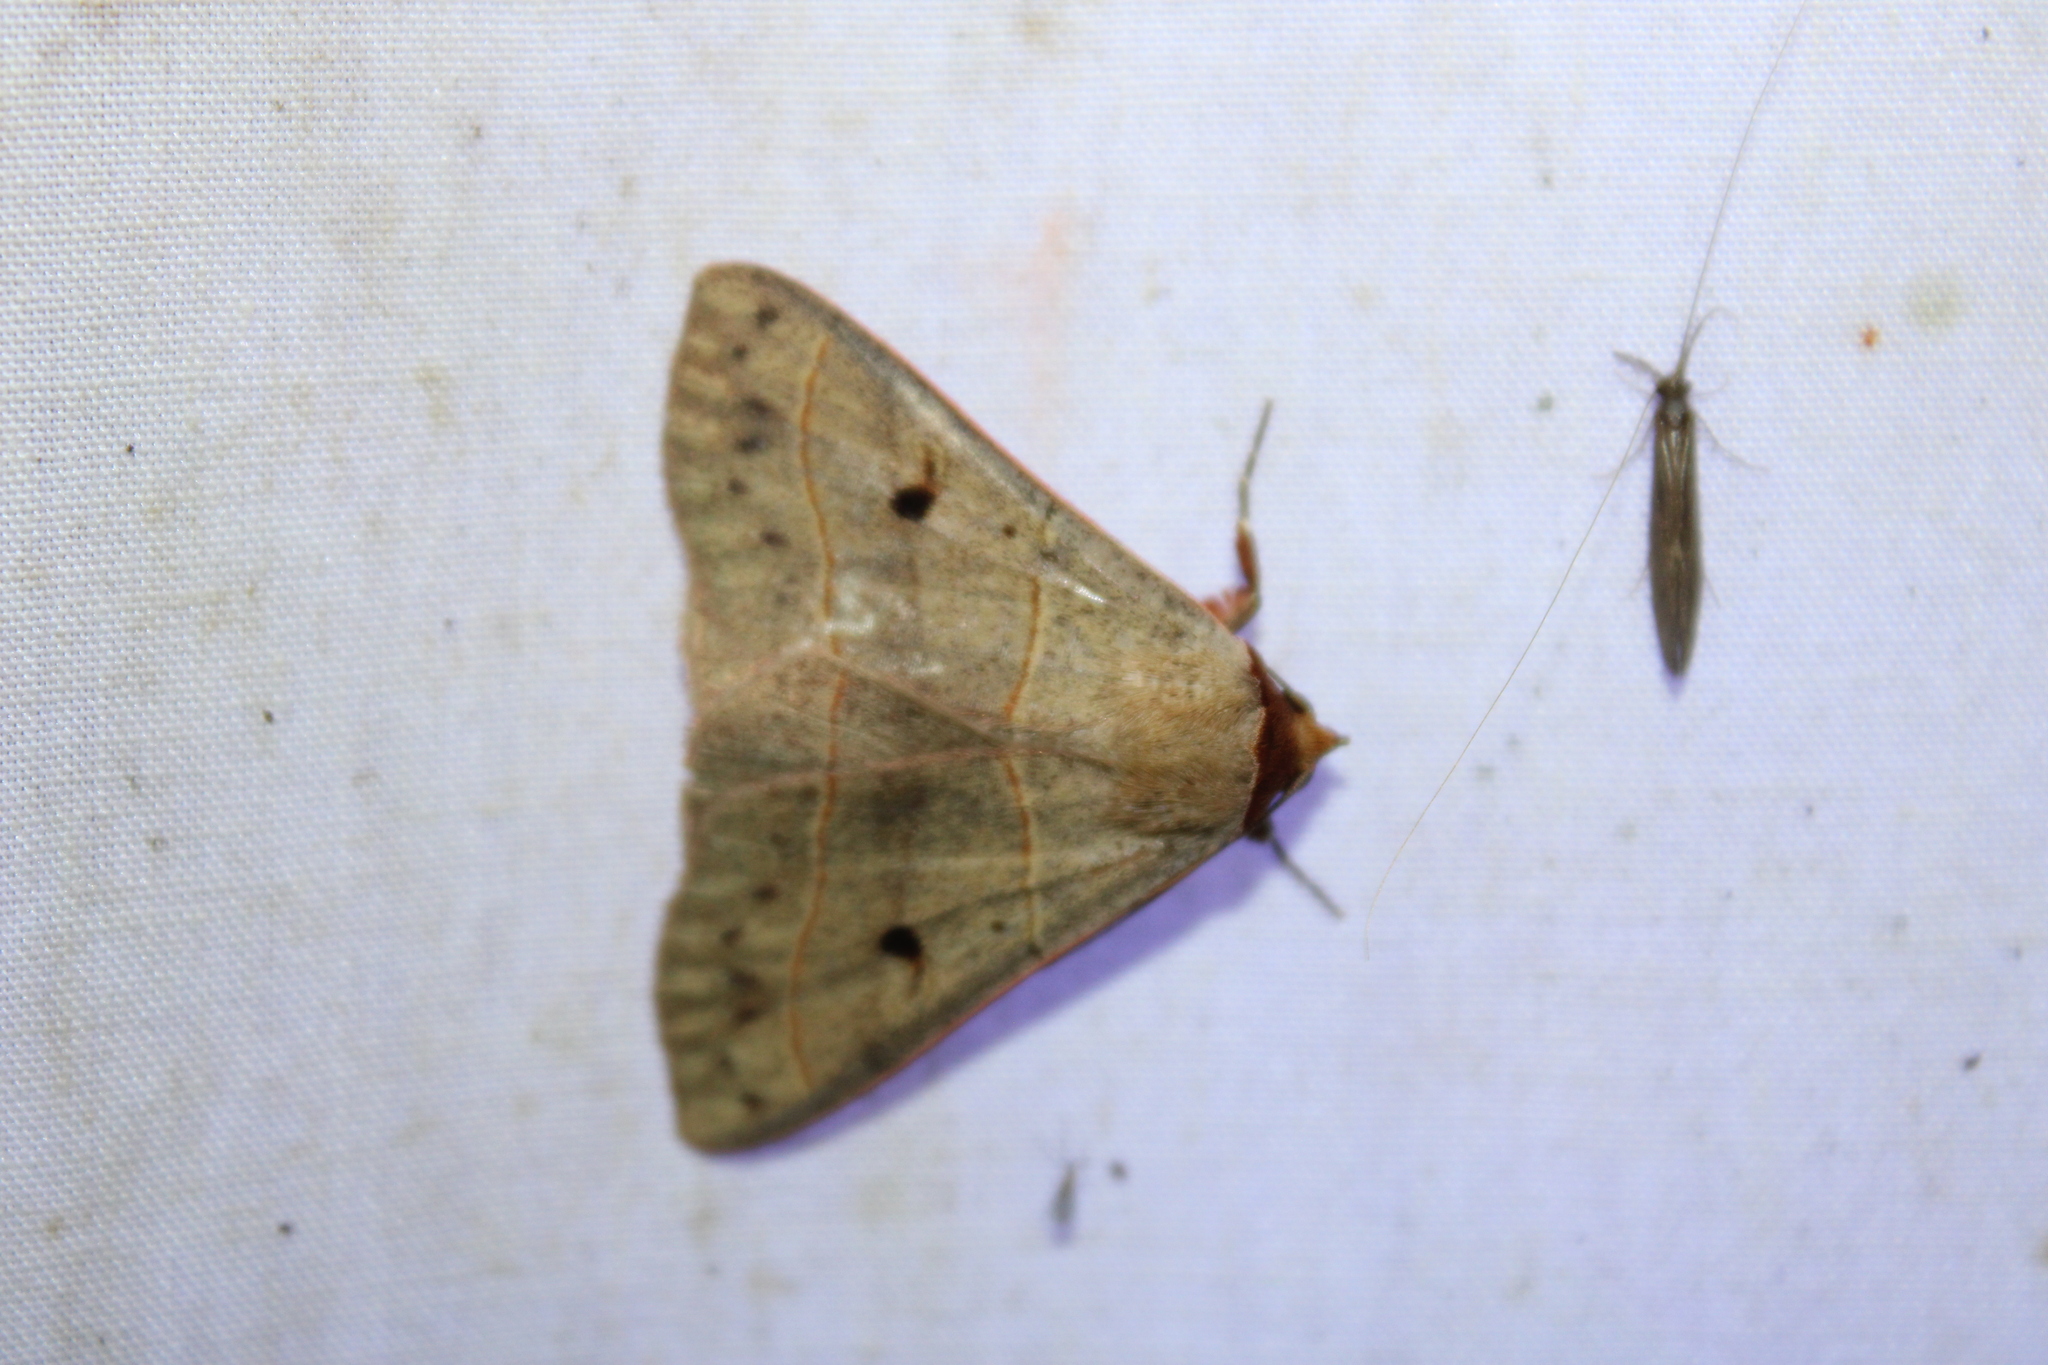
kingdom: Animalia
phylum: Arthropoda
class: Insecta
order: Lepidoptera
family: Erebidae
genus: Panopoda
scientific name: Panopoda rufimargo
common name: Red-lined panopoda moth
